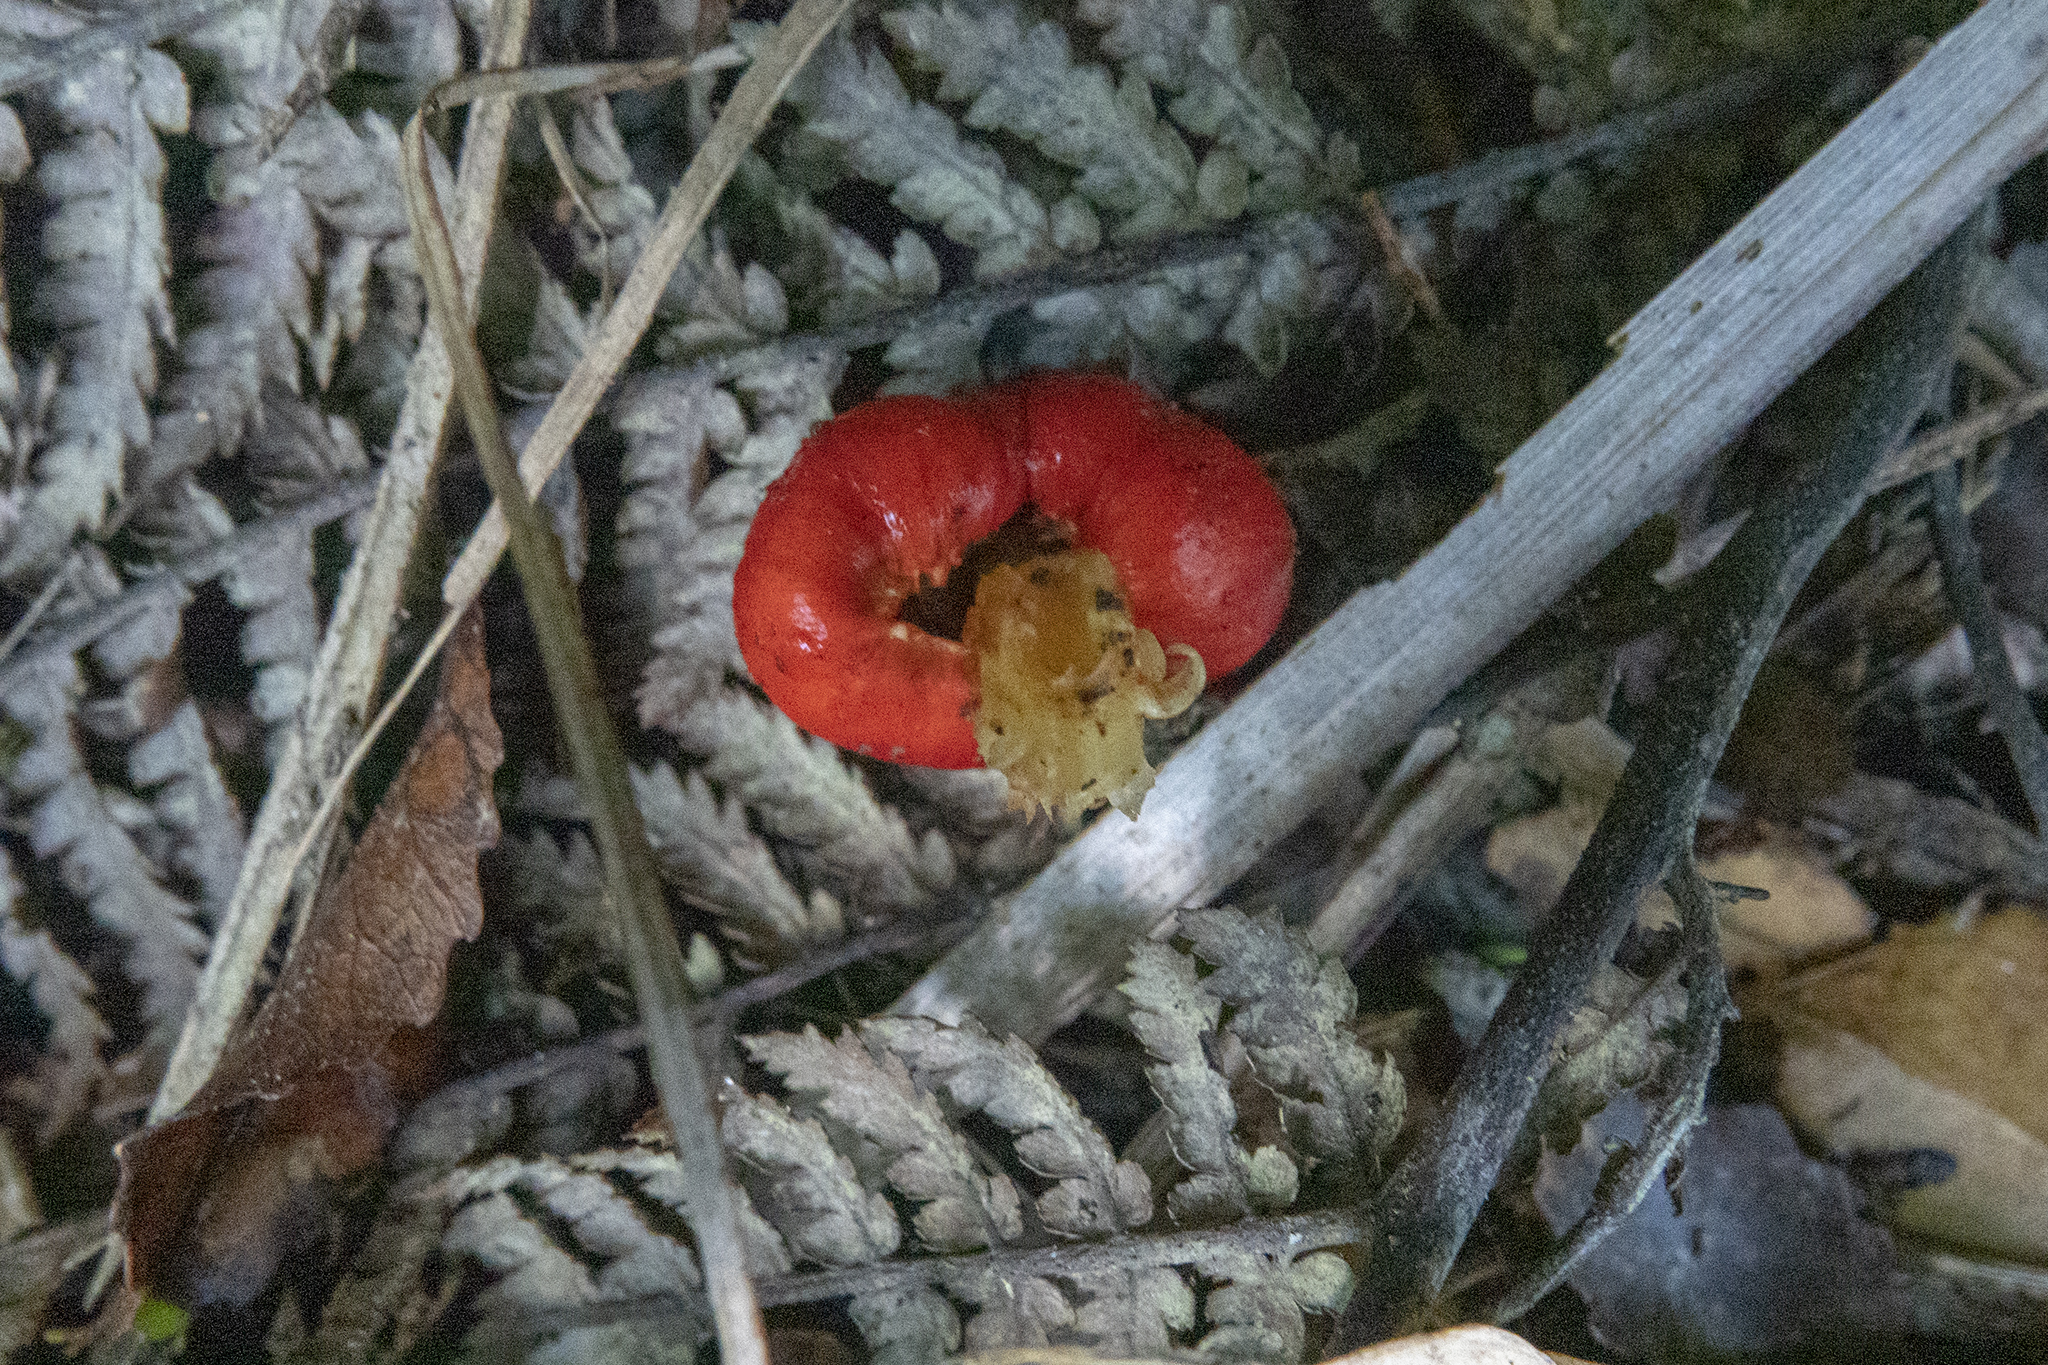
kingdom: Fungi
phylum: Basidiomycota
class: Agaricomycetes
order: Agaricales
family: Strophariaceae
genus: Leratiomyces
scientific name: Leratiomyces erythrocephalus
